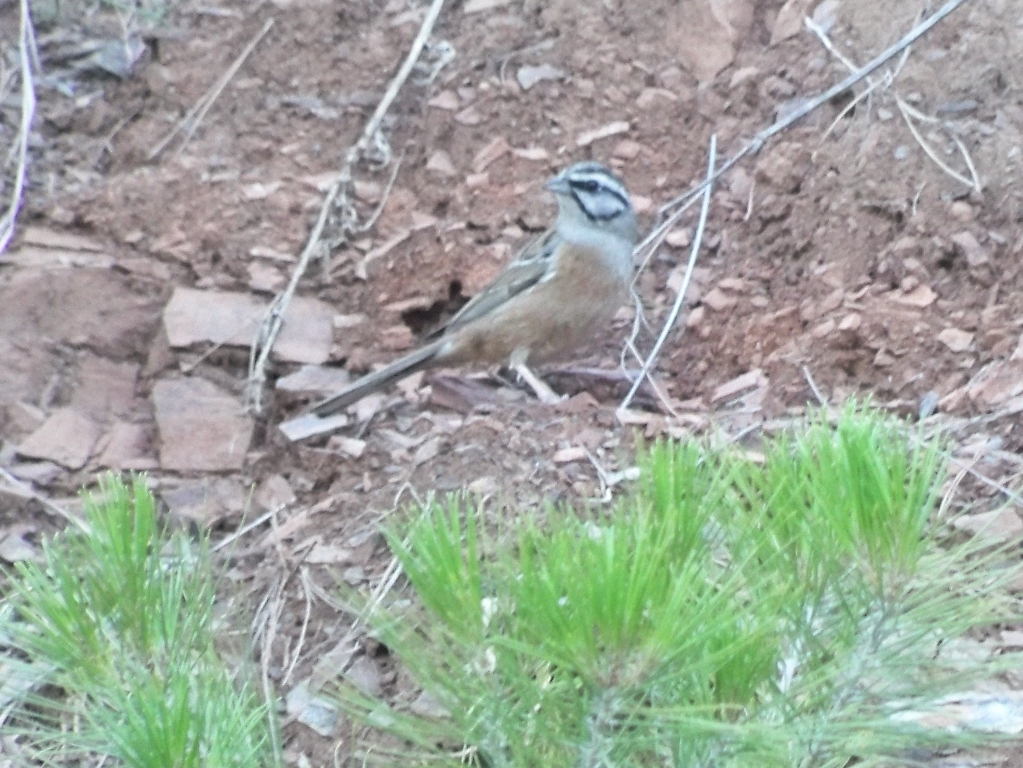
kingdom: Animalia
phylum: Chordata
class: Aves
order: Passeriformes
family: Emberizidae
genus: Emberiza
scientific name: Emberiza cia
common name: Rock bunting
